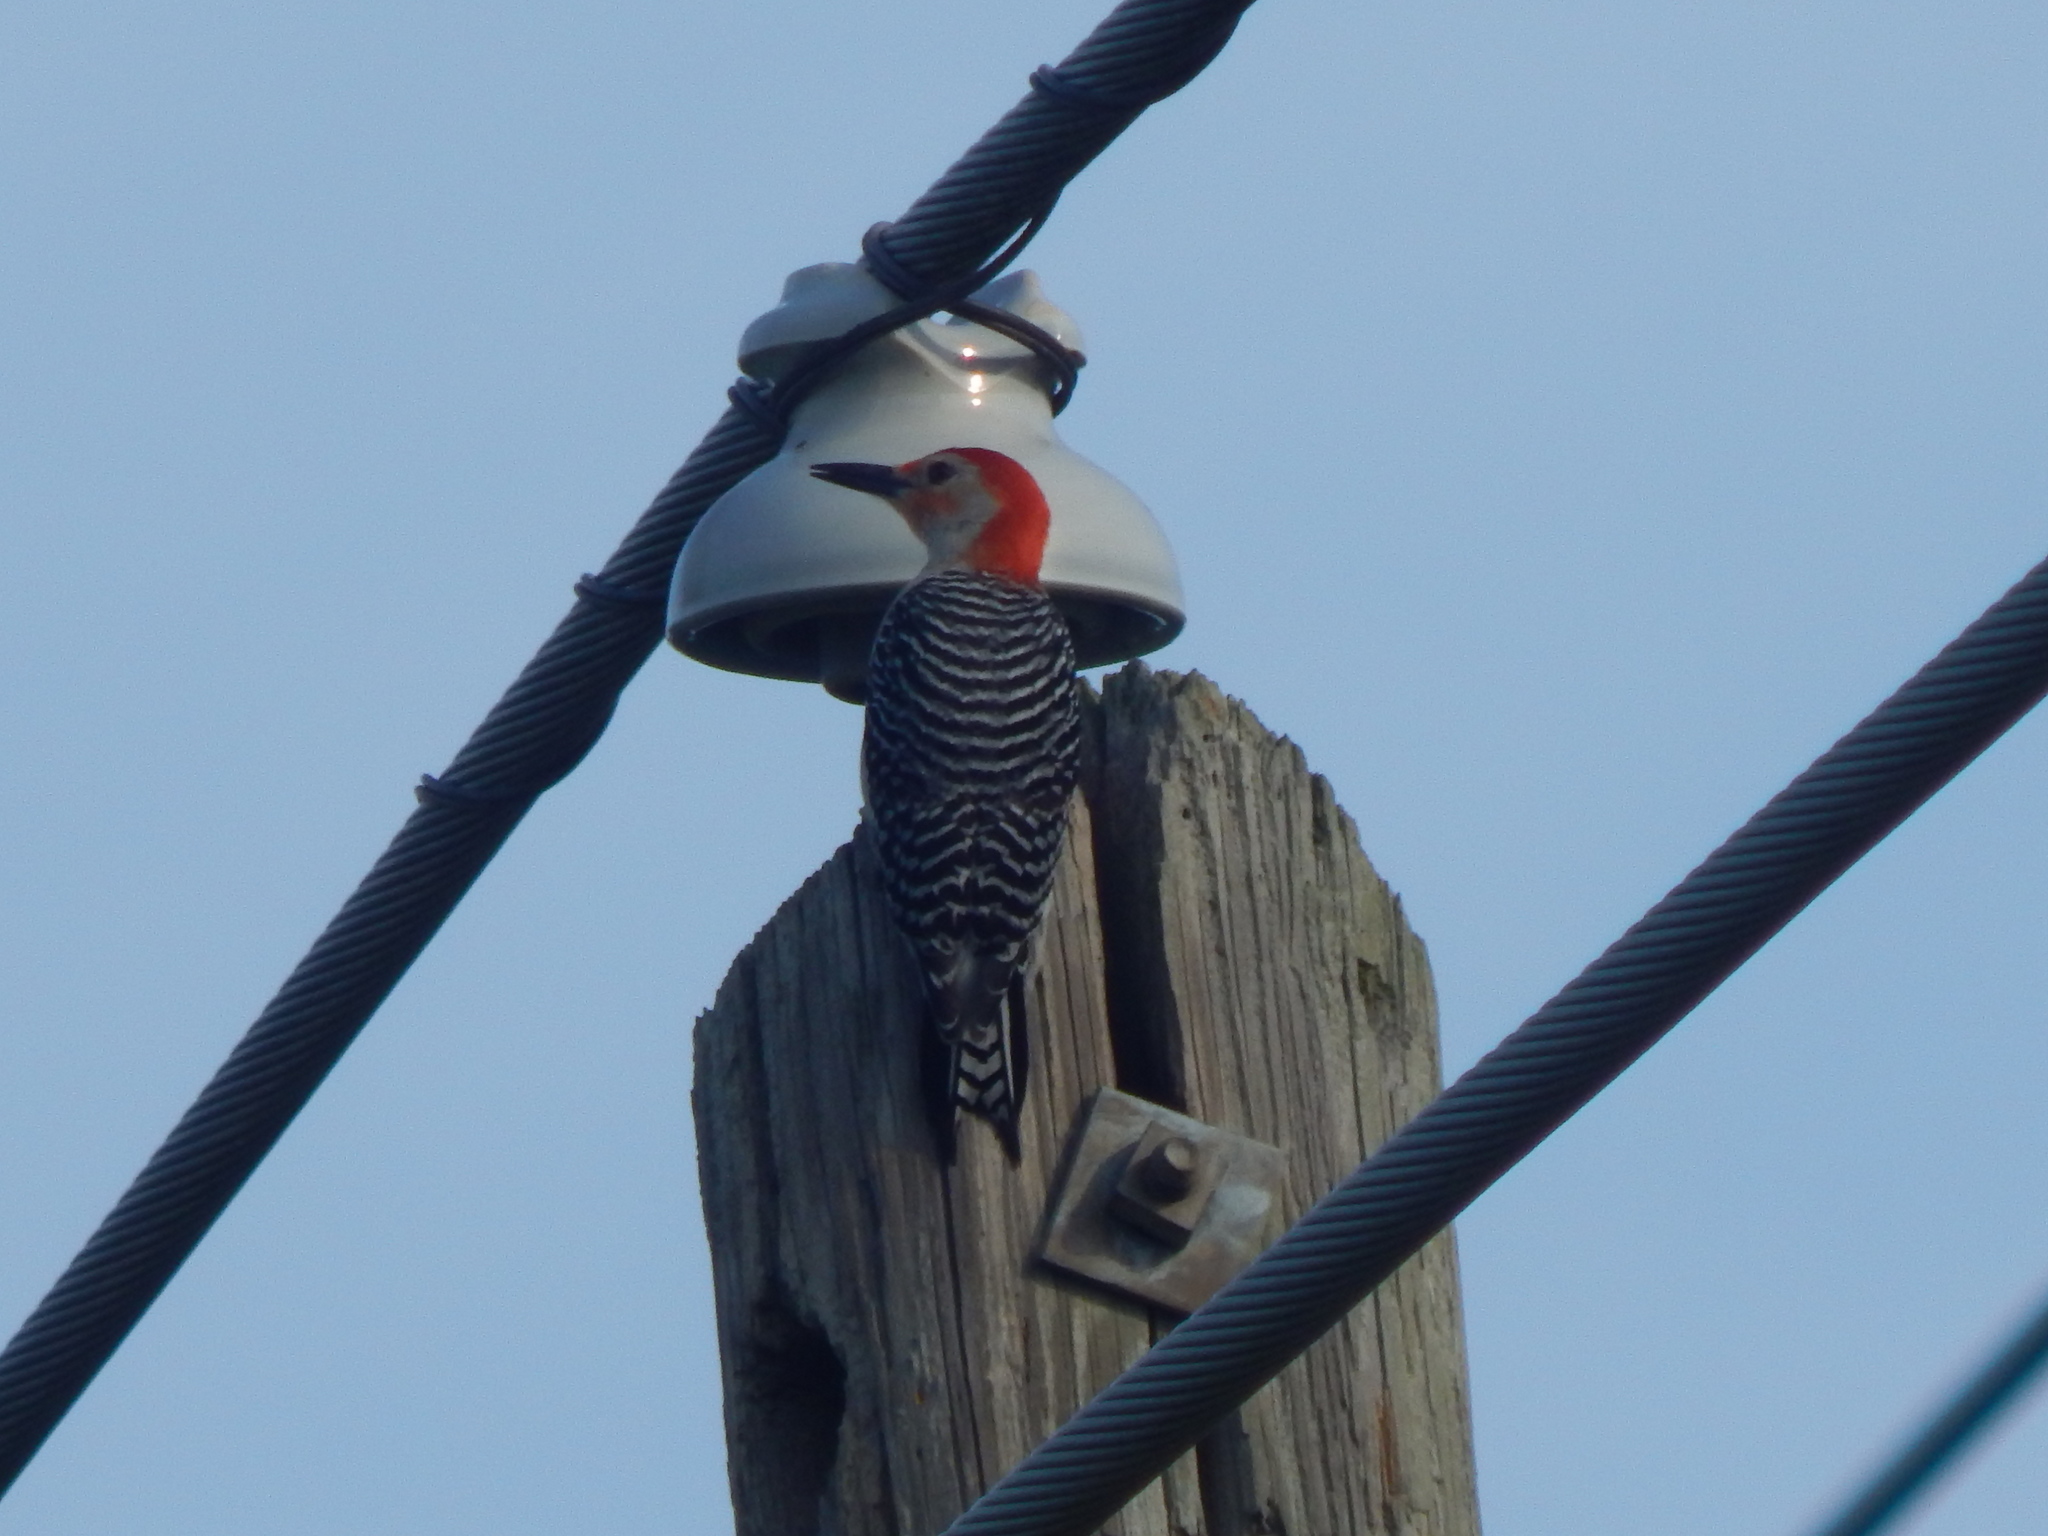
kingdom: Animalia
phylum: Chordata
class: Aves
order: Piciformes
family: Picidae
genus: Melanerpes
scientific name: Melanerpes carolinus
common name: Red-bellied woodpecker
